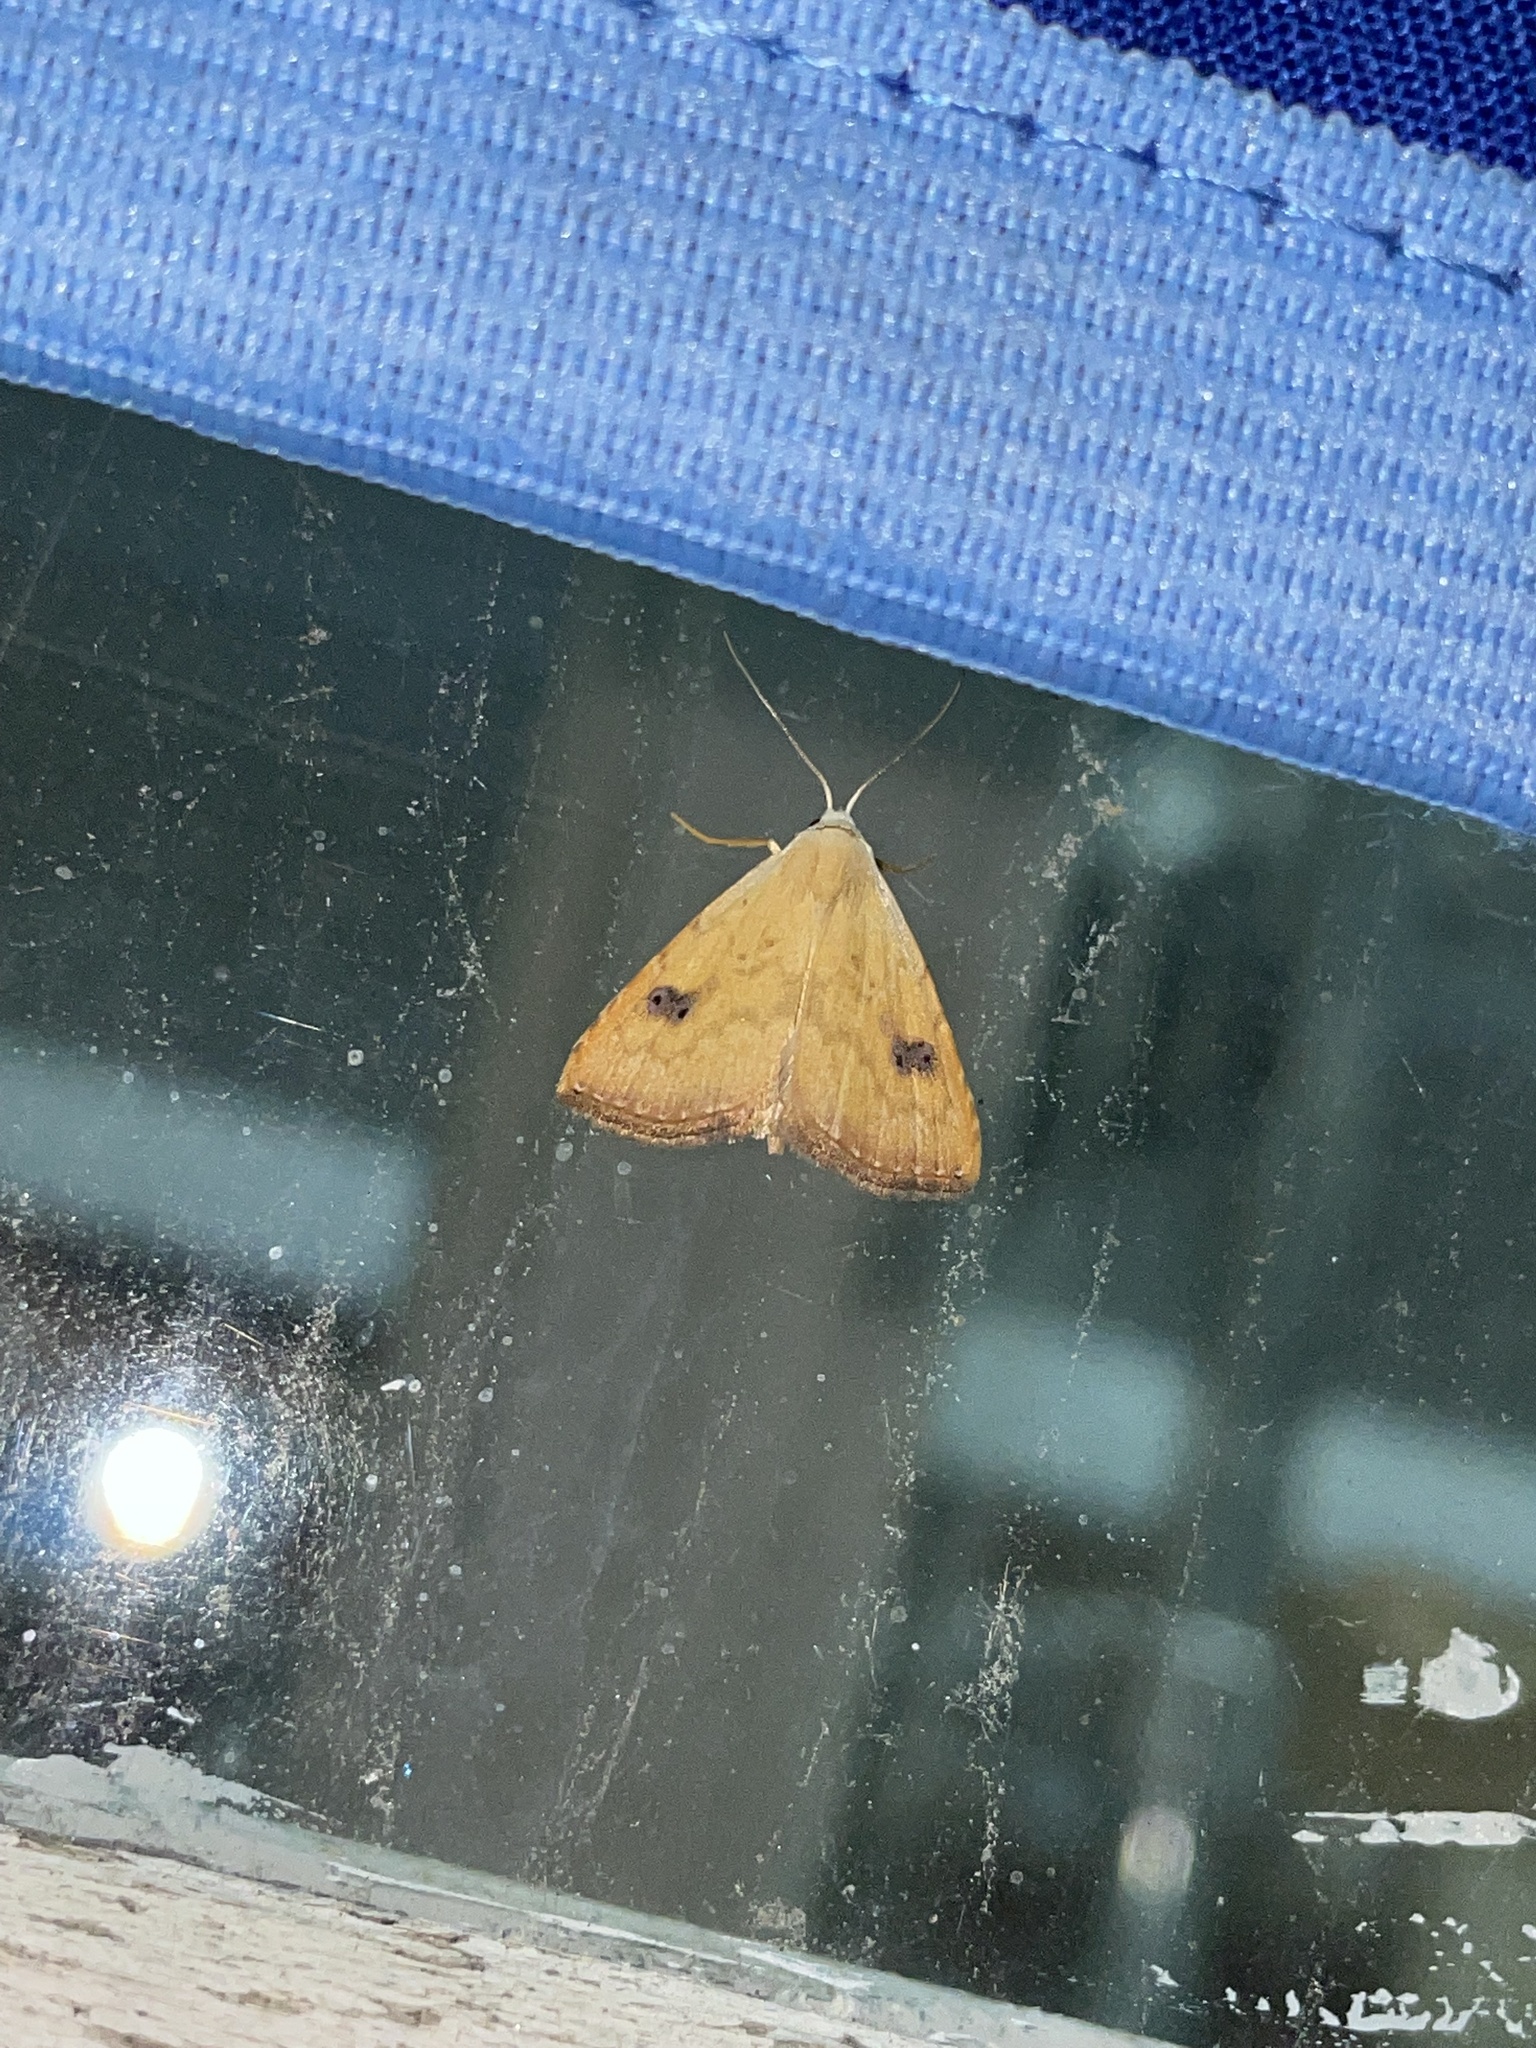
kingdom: Animalia
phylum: Arthropoda
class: Insecta
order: Lepidoptera
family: Erebidae
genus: Rivula
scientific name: Rivula sericealis
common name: Straw dot
